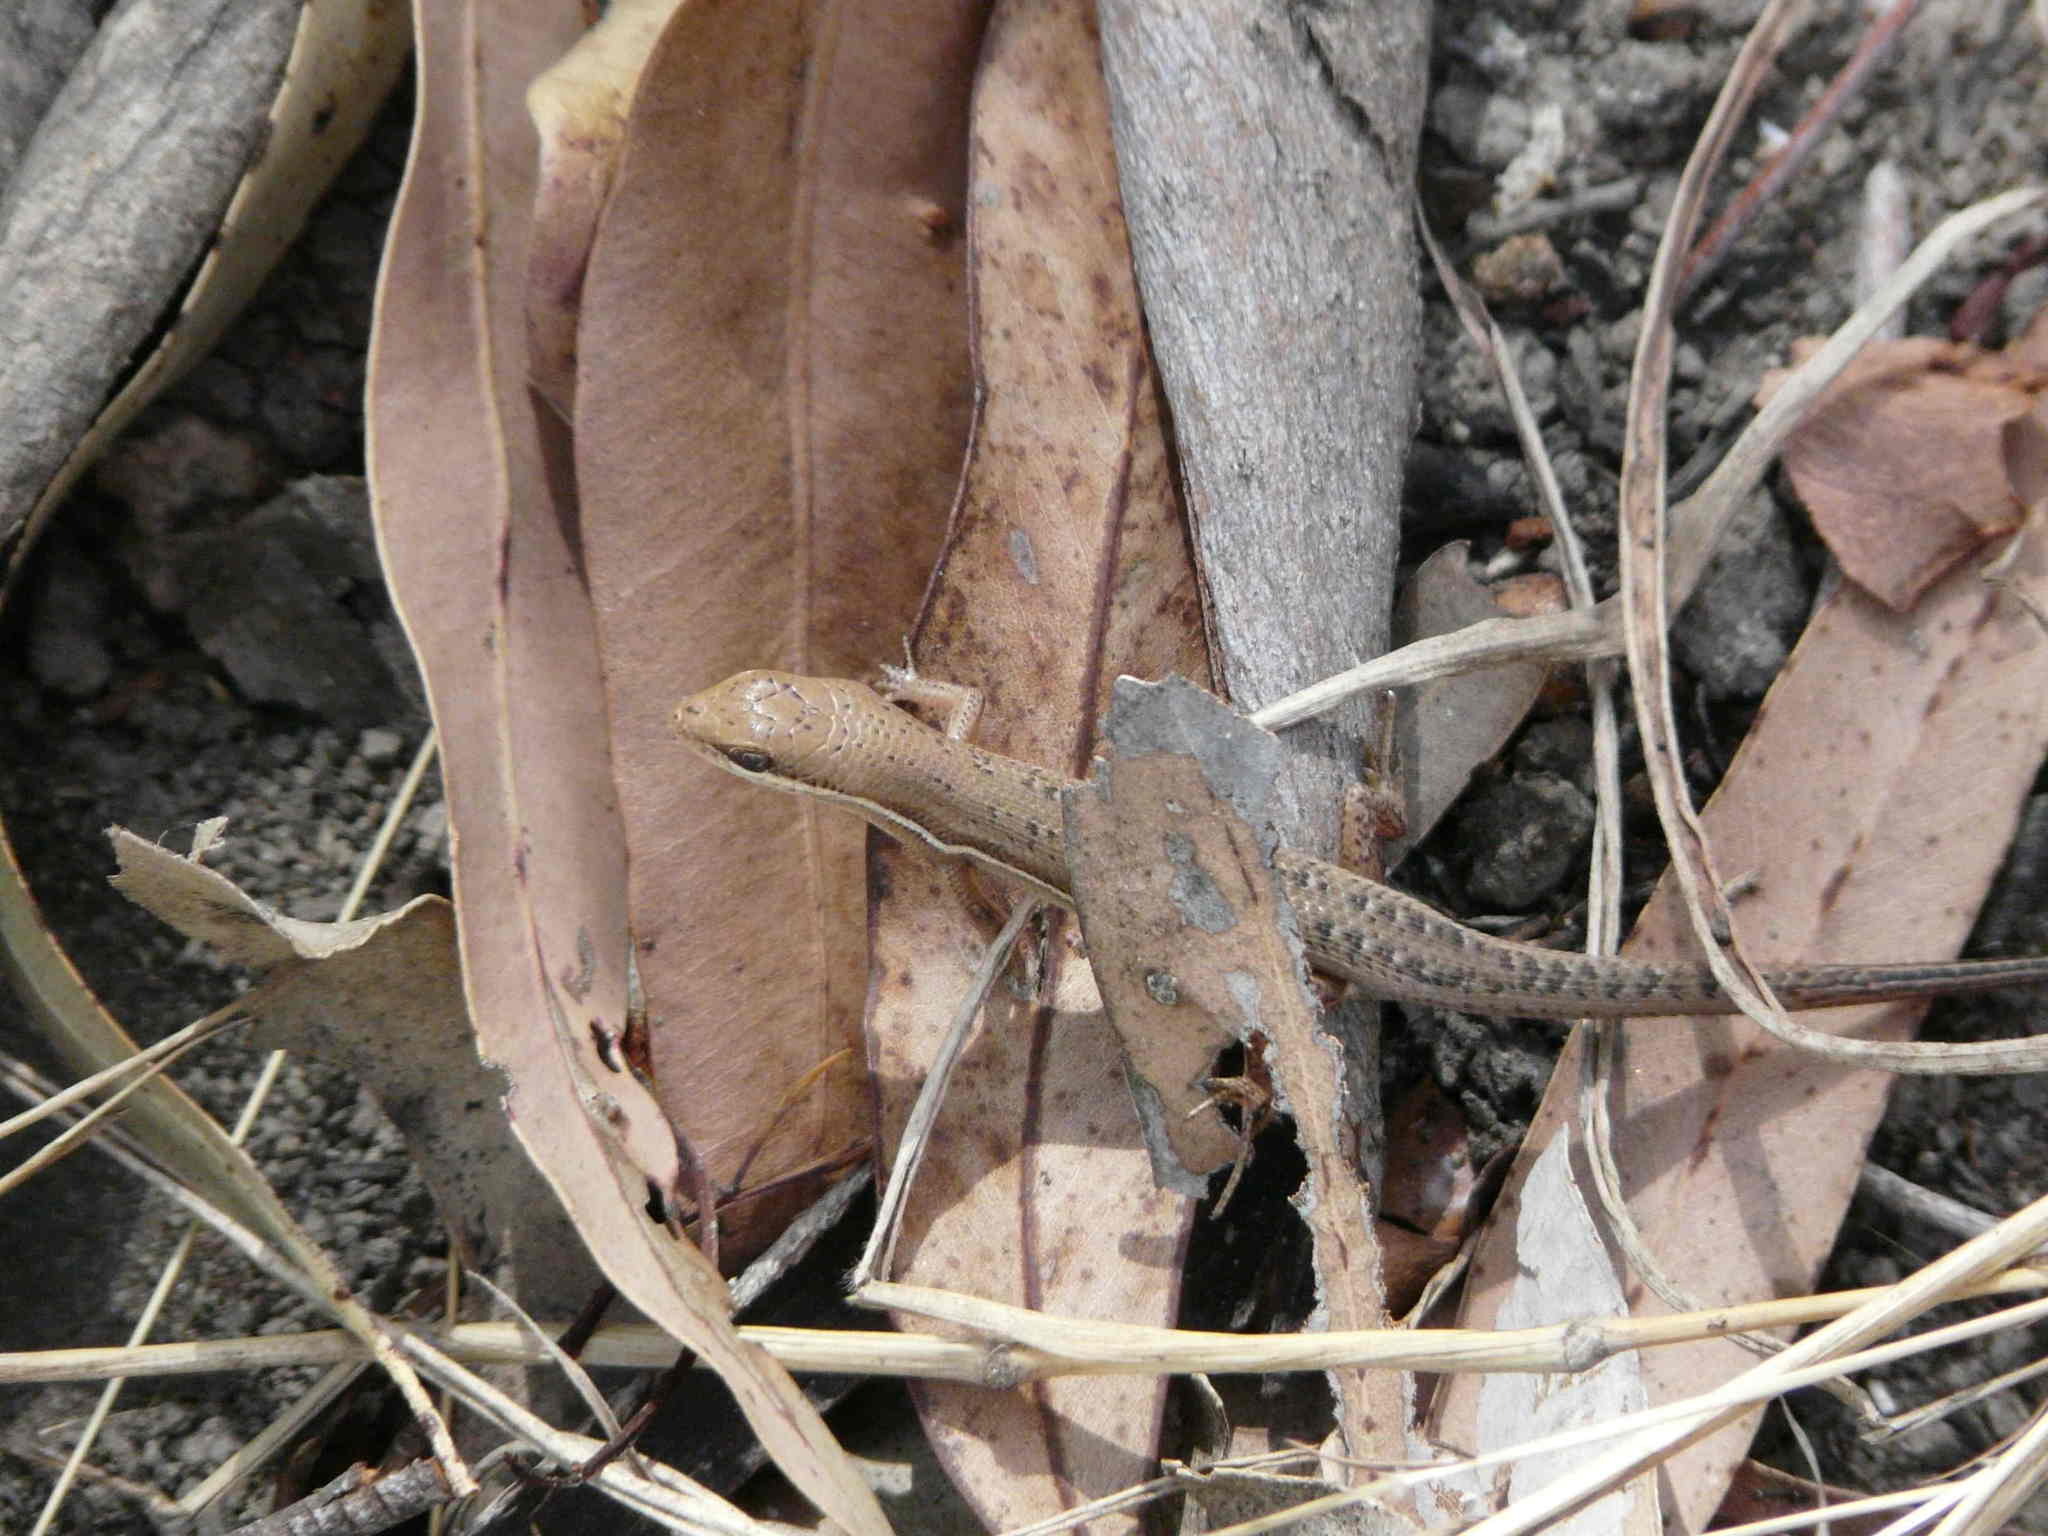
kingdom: Animalia
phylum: Chordata
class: Squamata
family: Scincidae
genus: Carlia
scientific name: Carlia decora
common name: Elegant rainbow skink
